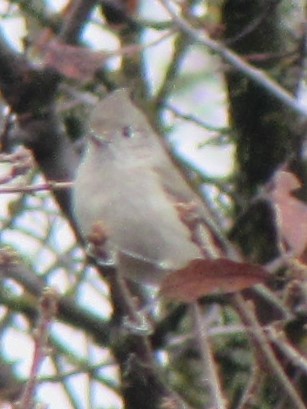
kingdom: Animalia
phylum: Chordata
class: Aves
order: Passeriformes
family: Paridae
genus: Baeolophus
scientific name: Baeolophus inornatus
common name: Oak titmouse
